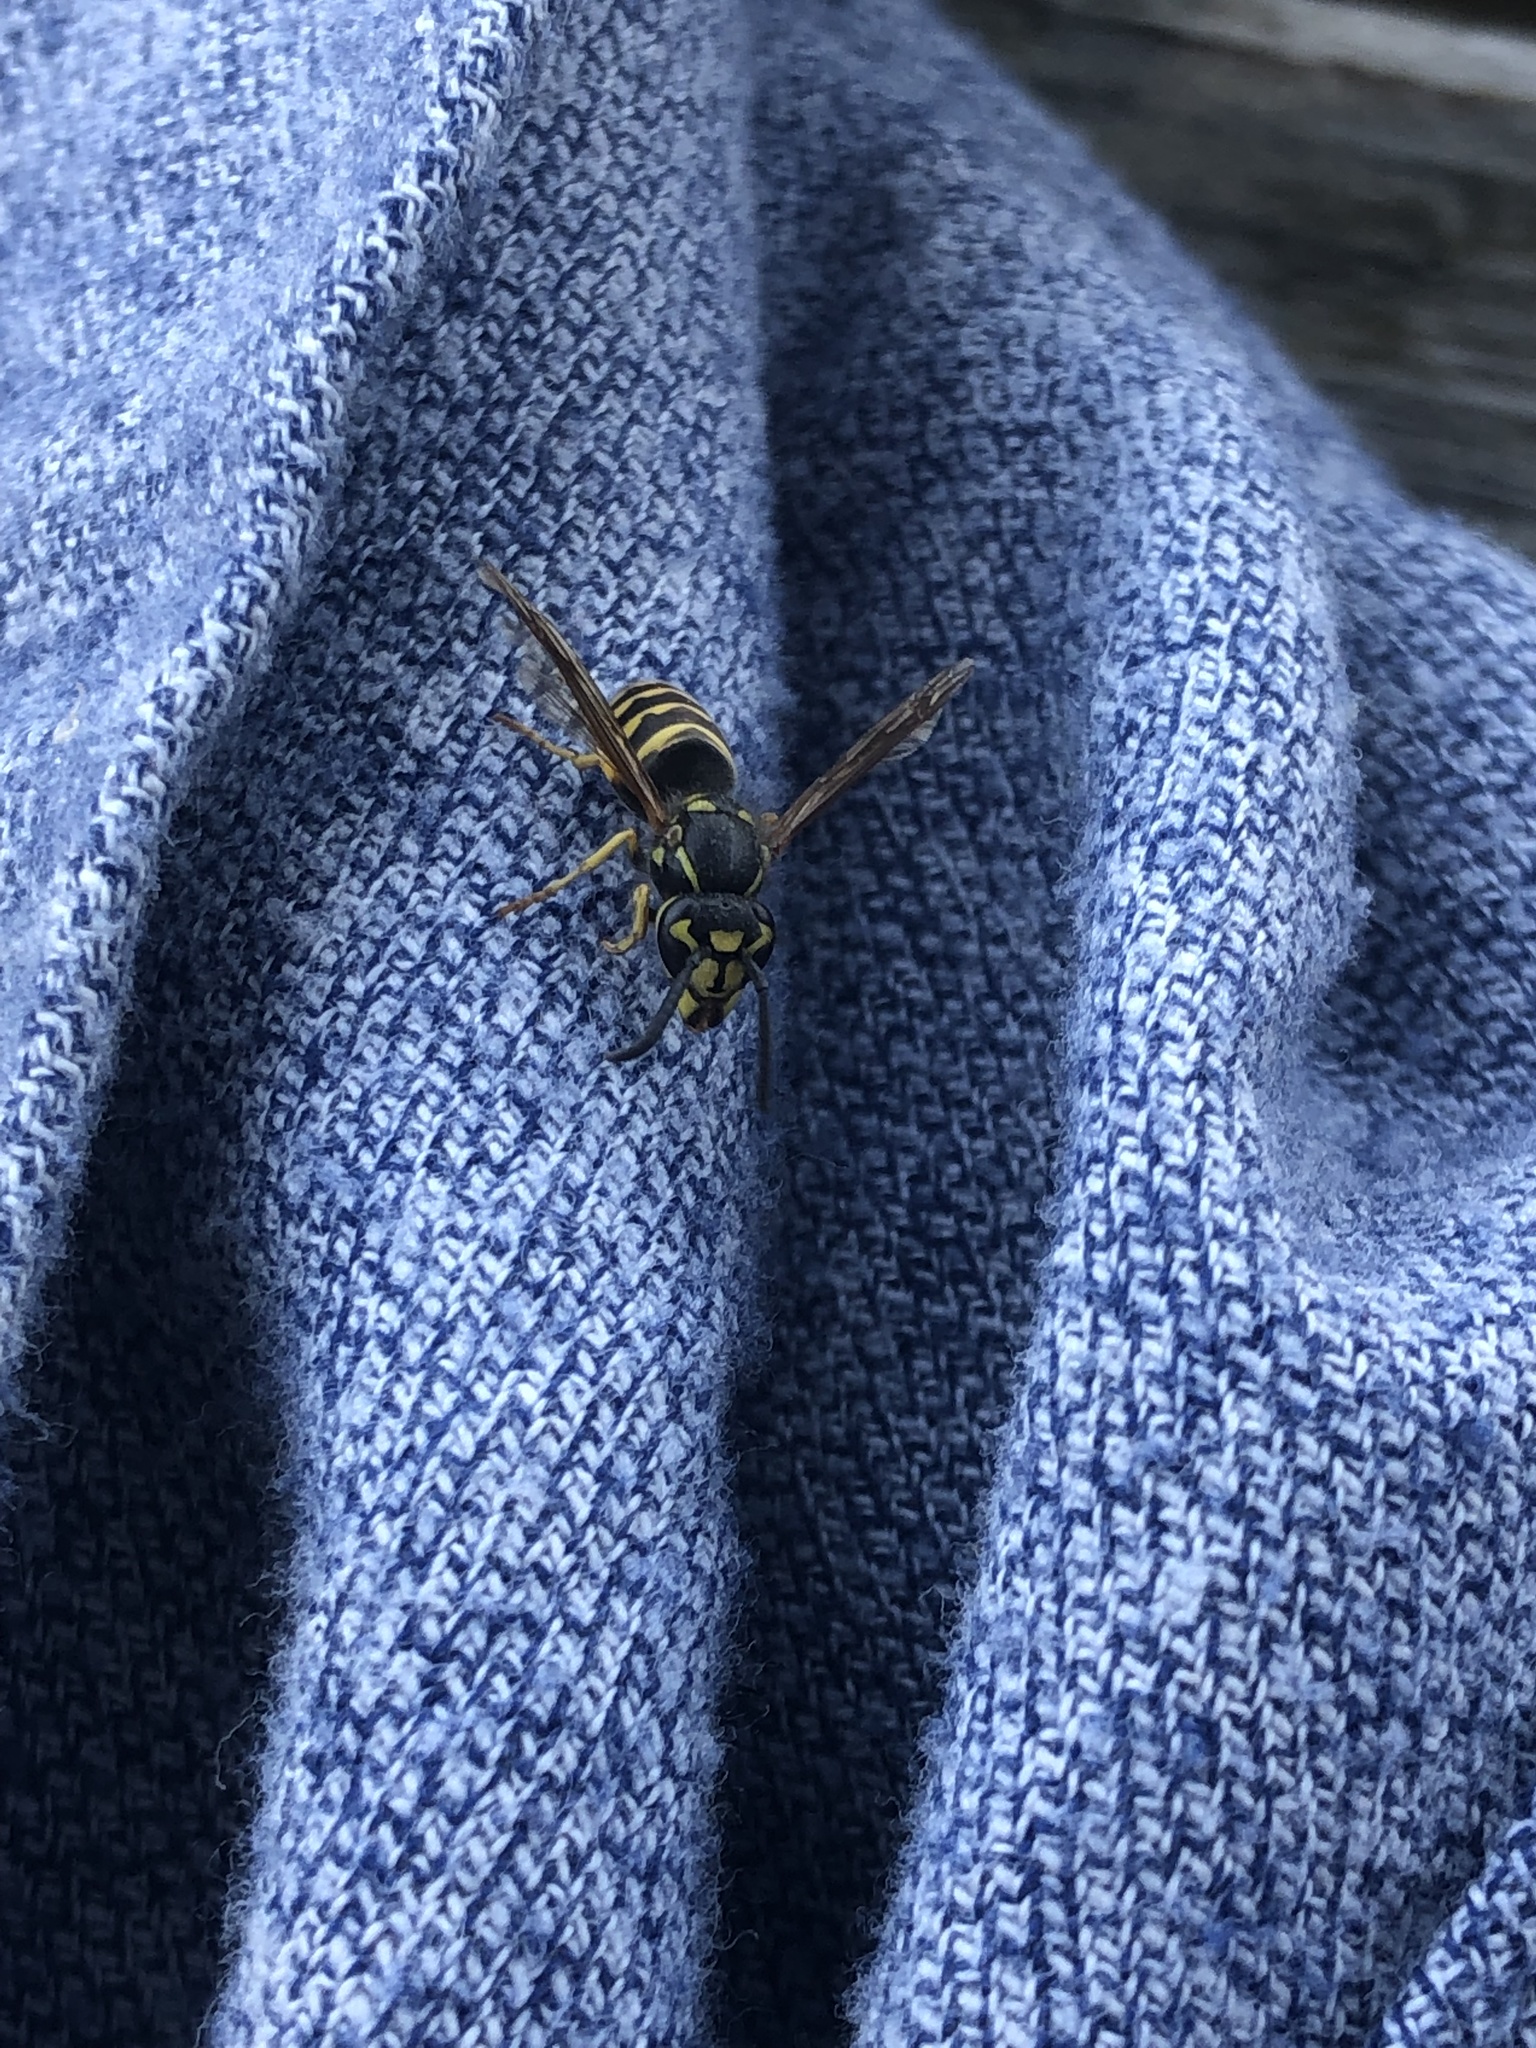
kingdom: Animalia
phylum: Arthropoda
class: Insecta
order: Hymenoptera
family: Vespidae
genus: Vespula
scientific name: Vespula alascensis
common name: Alaska yellowjacket
